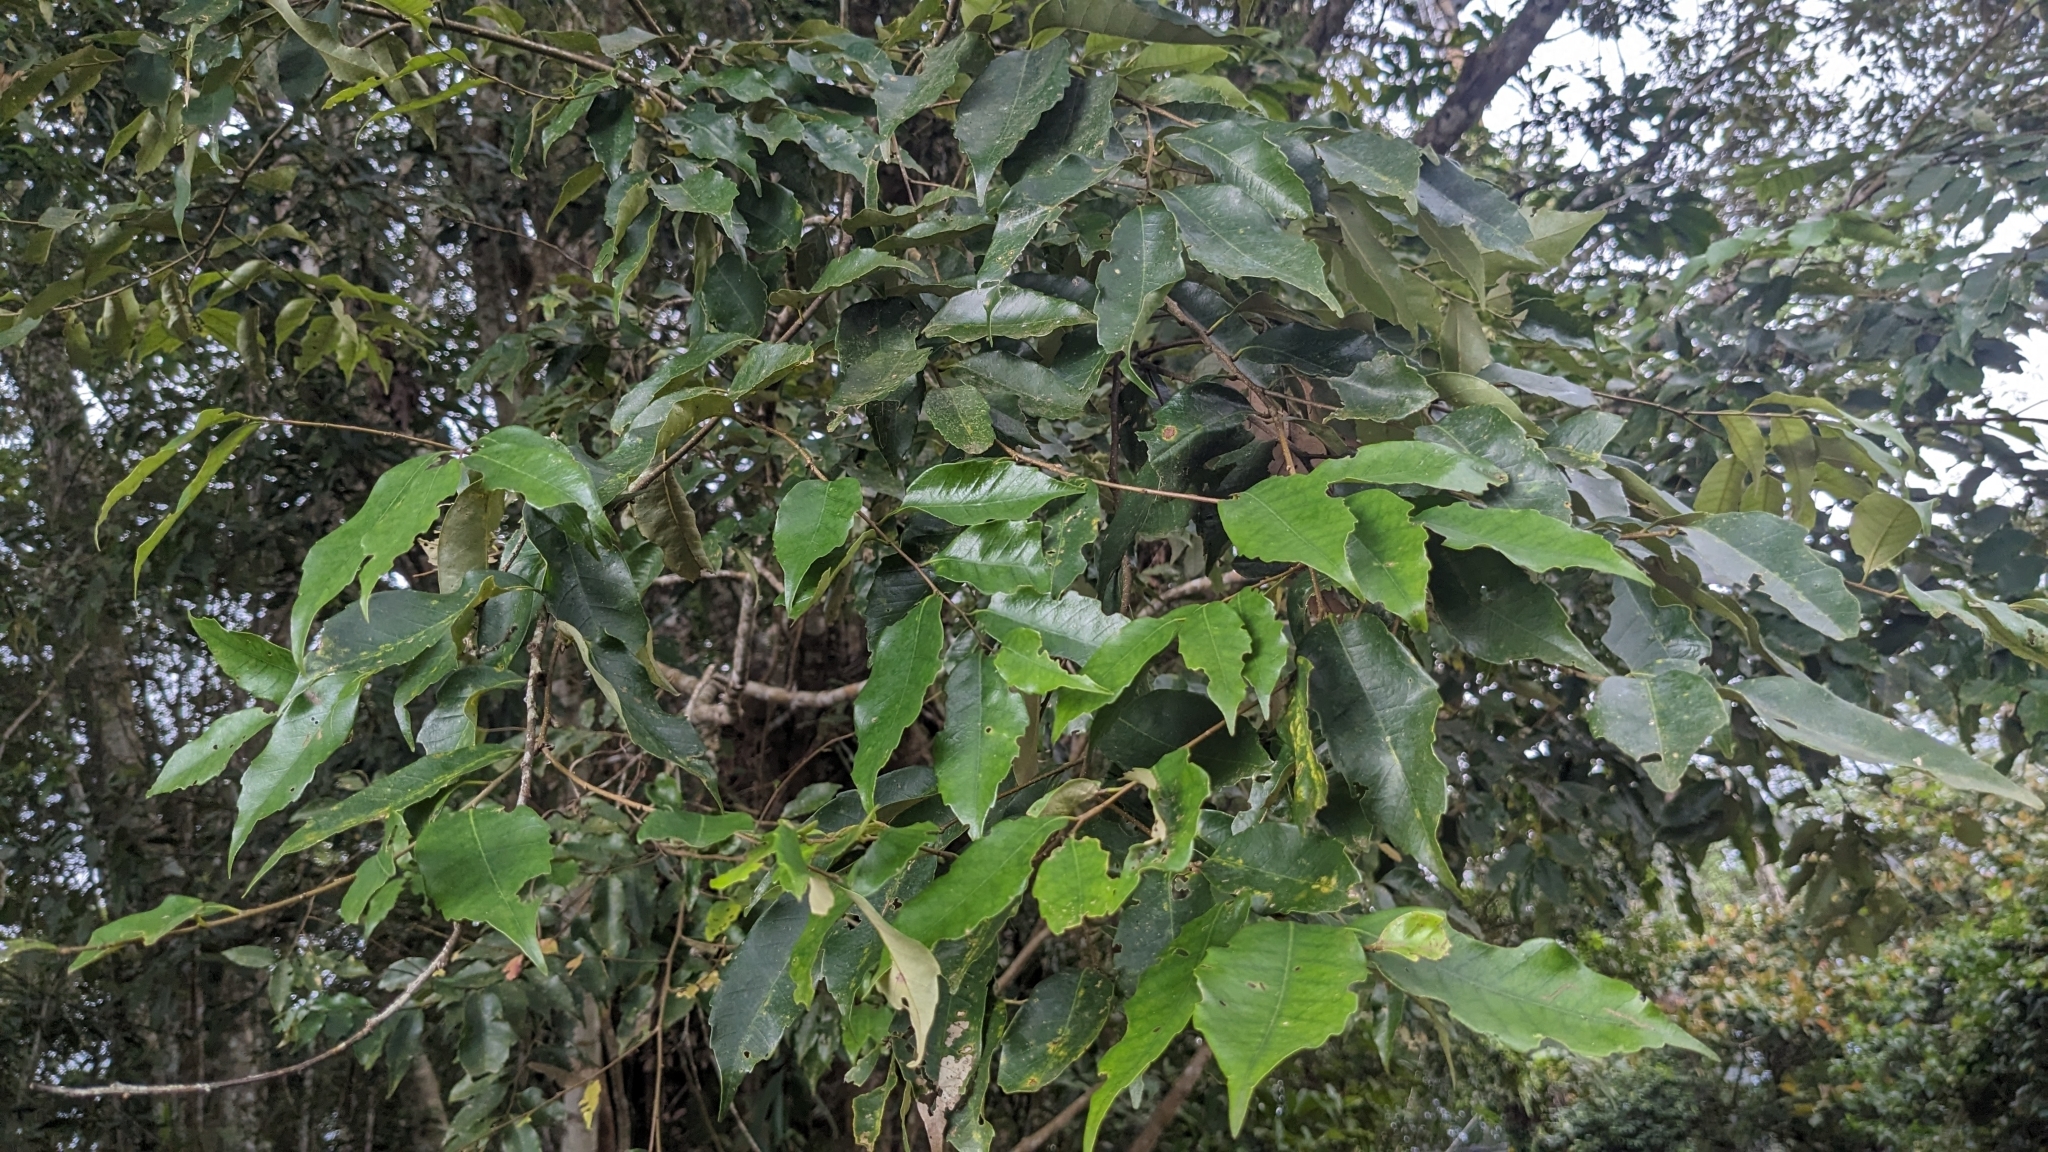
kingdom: Plantae
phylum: Tracheophyta
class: Magnoliopsida
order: Fagales
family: Fagaceae
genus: Castanopsis
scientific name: Castanopsis carlesii
